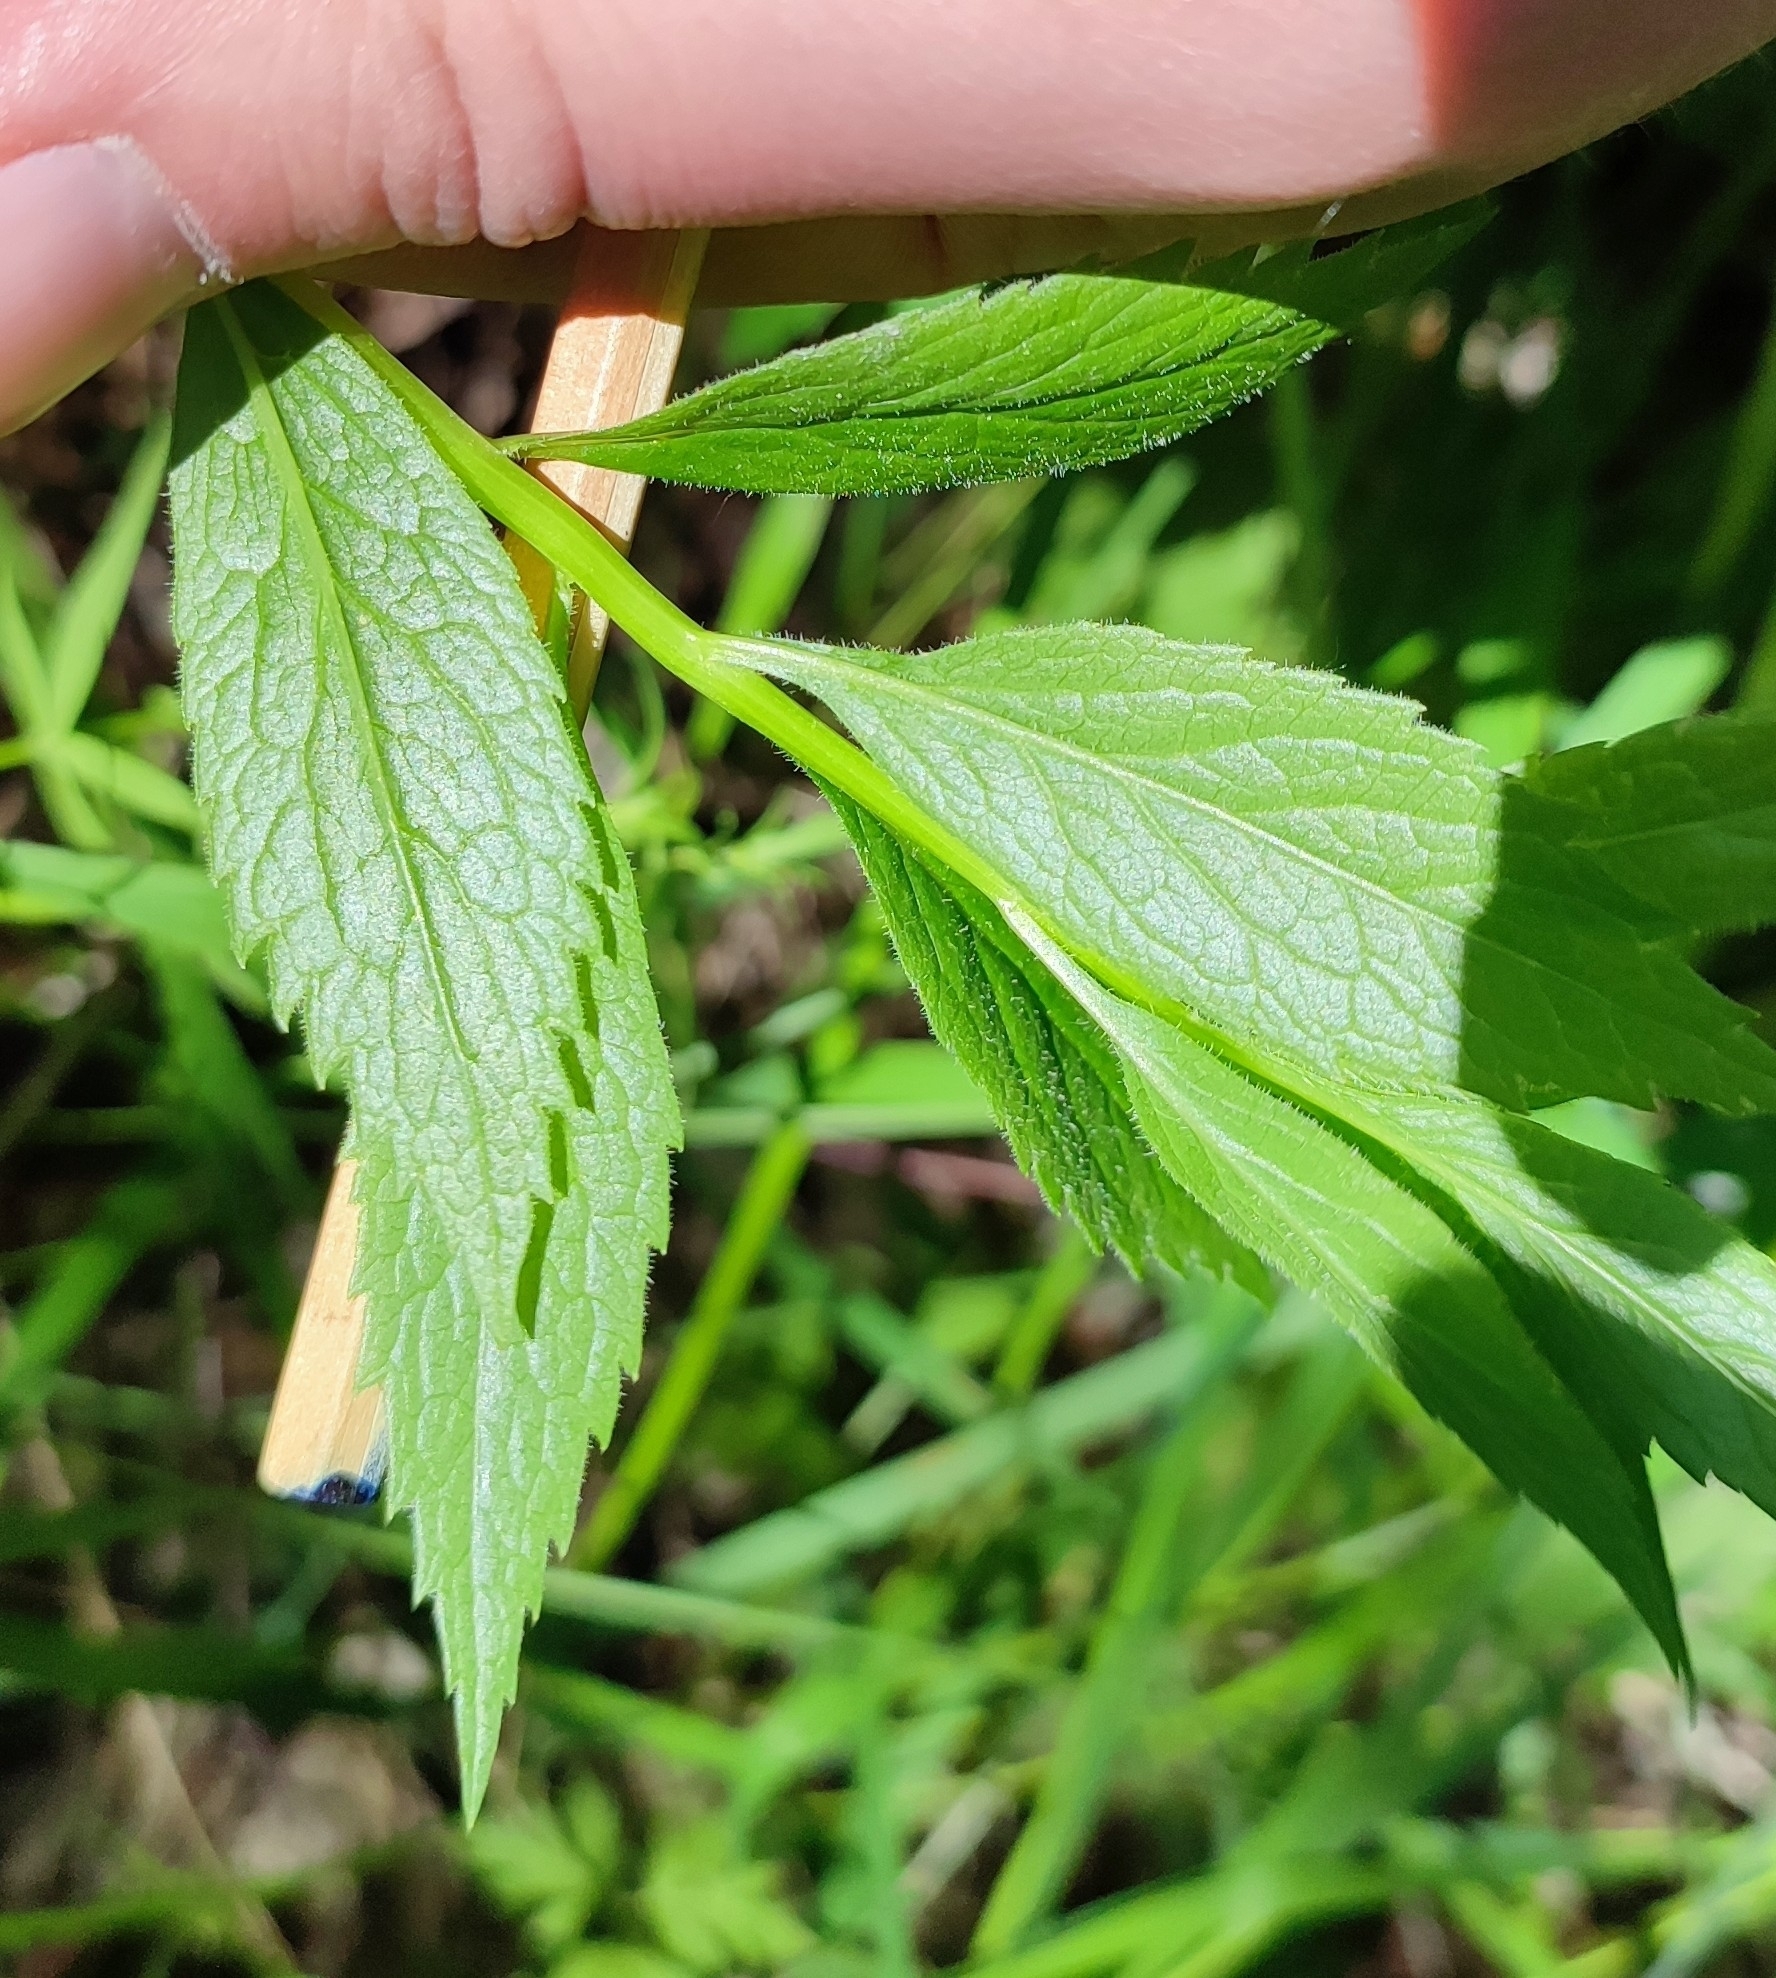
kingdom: Plantae
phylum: Tracheophyta
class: Magnoliopsida
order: Asterales
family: Campanulaceae
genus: Adenophora
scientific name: Adenophora liliifolia
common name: Lilyleaf ladybells
